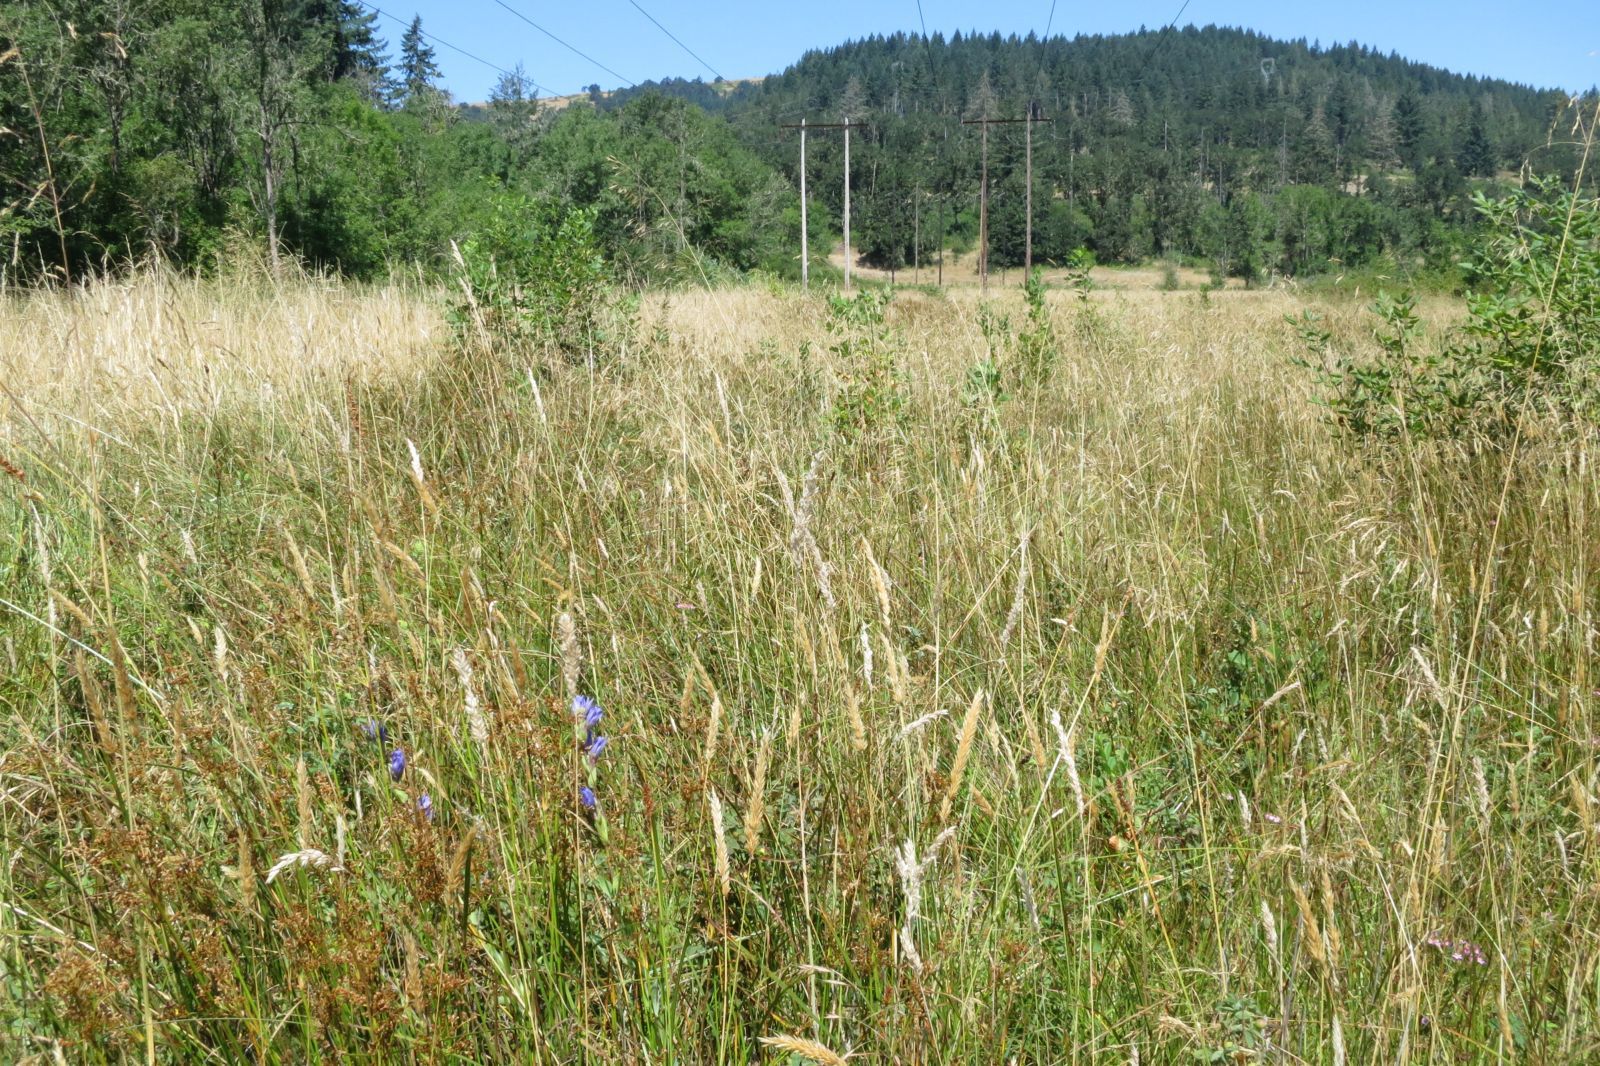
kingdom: Plantae
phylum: Tracheophyta
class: Magnoliopsida
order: Gentianales
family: Gentianaceae
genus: Gentiana
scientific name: Gentiana sceptrum
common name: Pacific gentian
